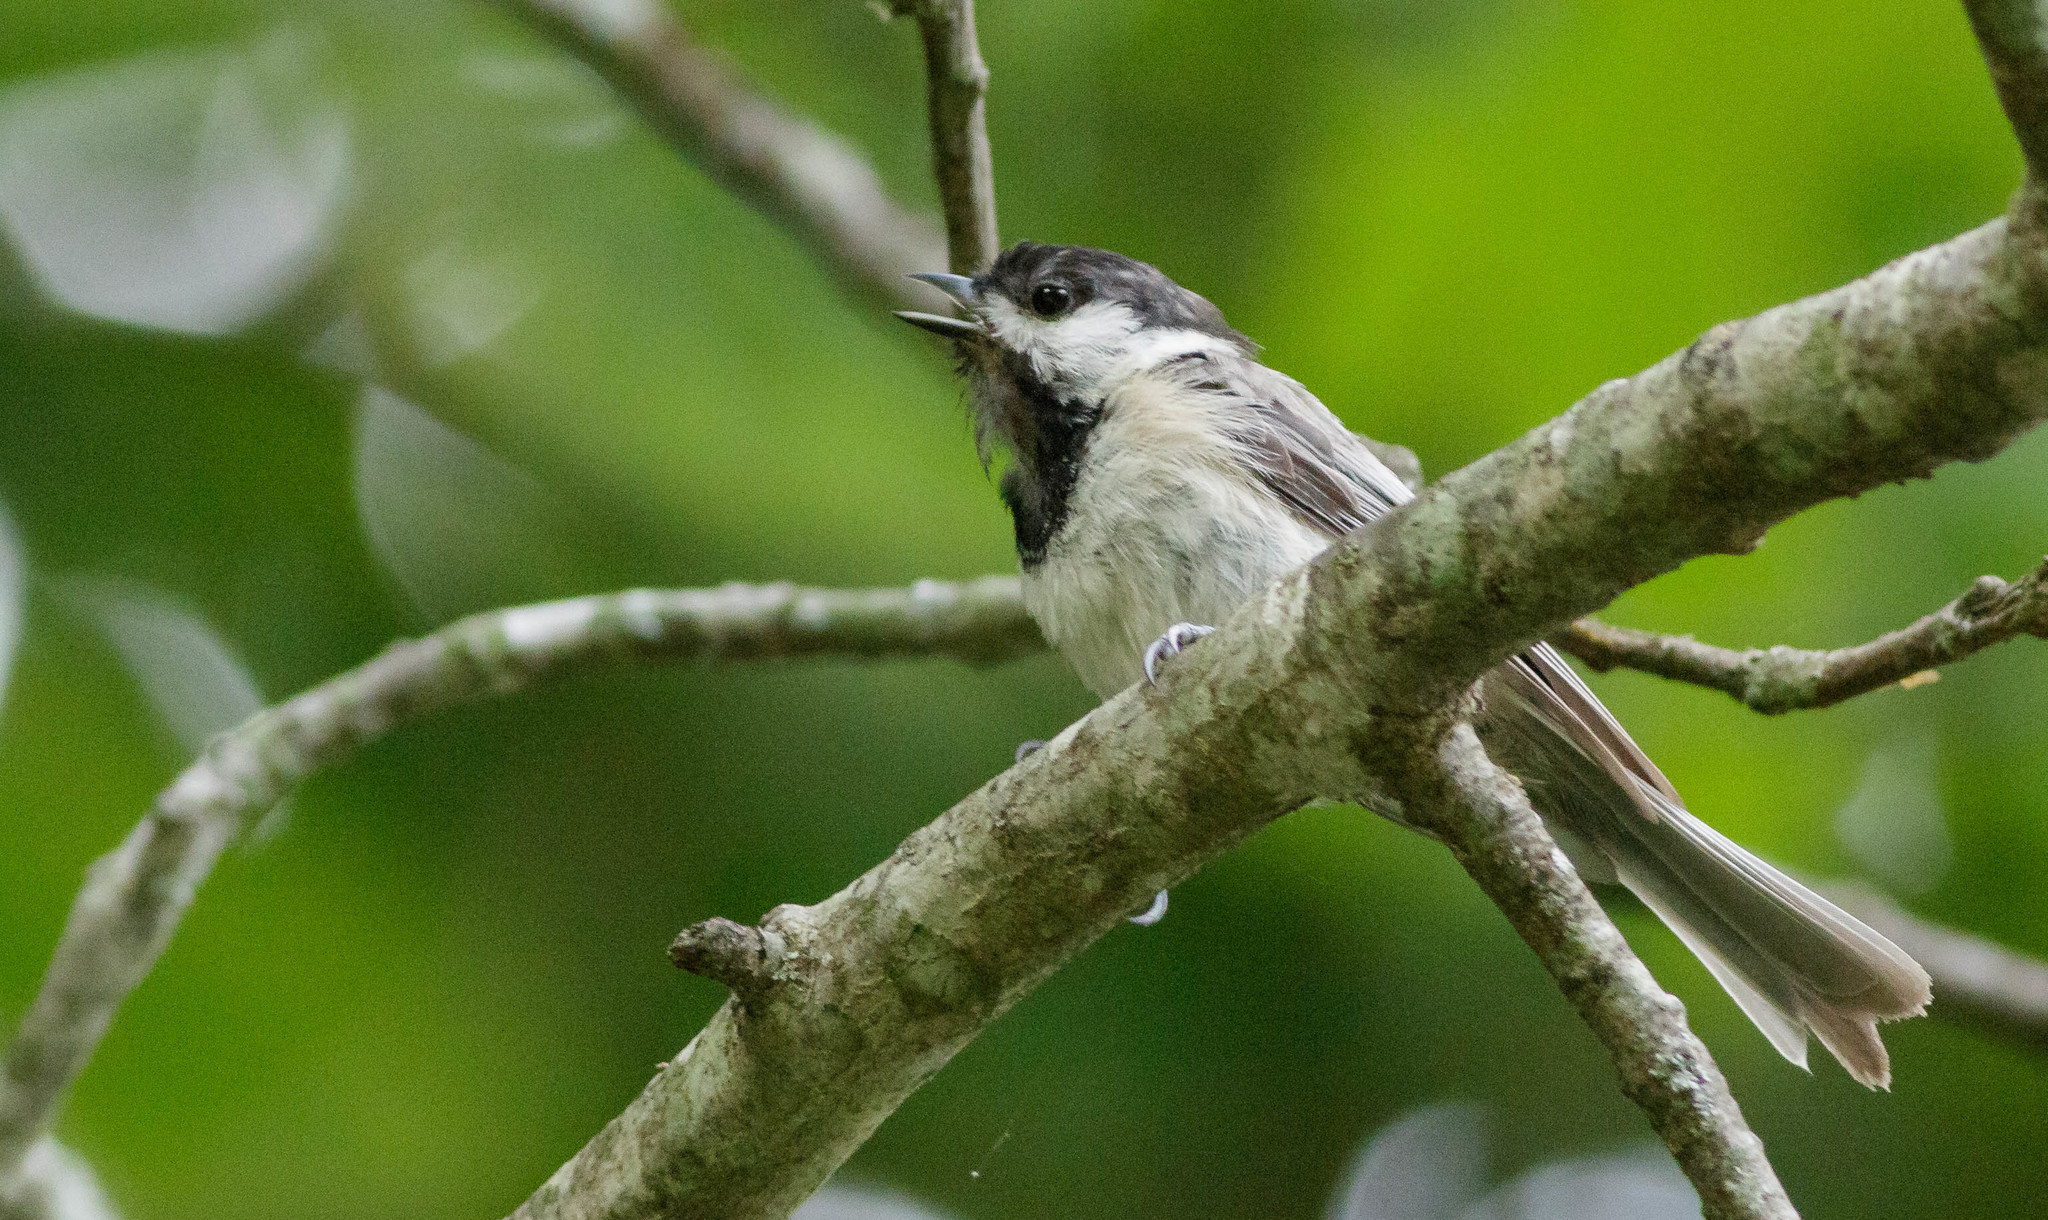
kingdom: Animalia
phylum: Chordata
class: Aves
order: Passeriformes
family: Paridae
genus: Poecile
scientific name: Poecile carolinensis
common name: Carolina chickadee
